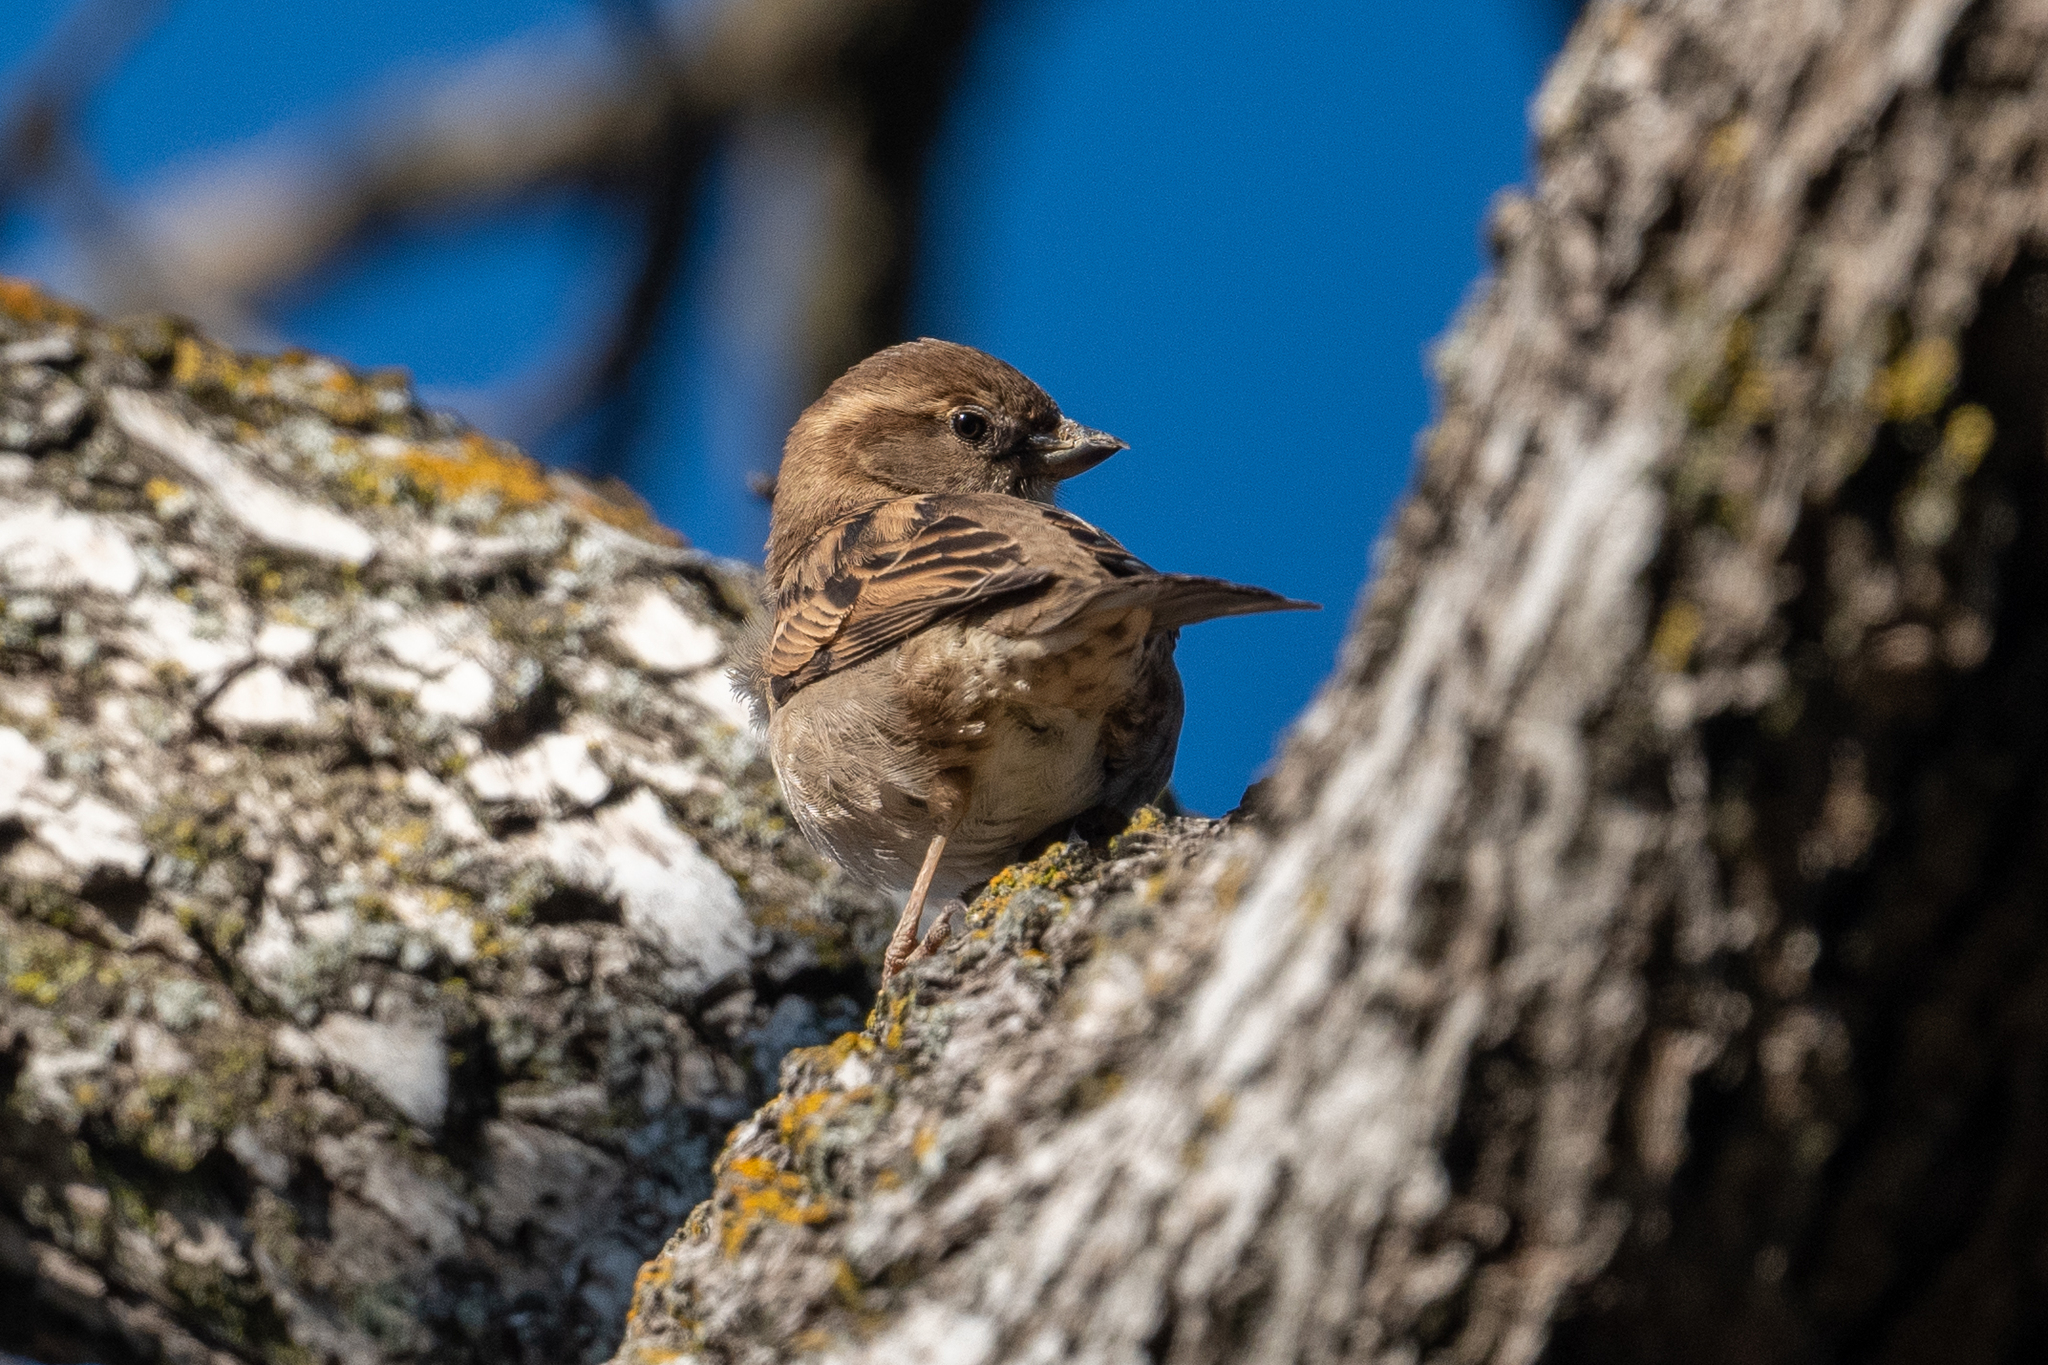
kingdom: Animalia
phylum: Chordata
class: Aves
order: Passeriformes
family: Passeridae
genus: Passer
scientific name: Passer domesticus
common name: House sparrow
